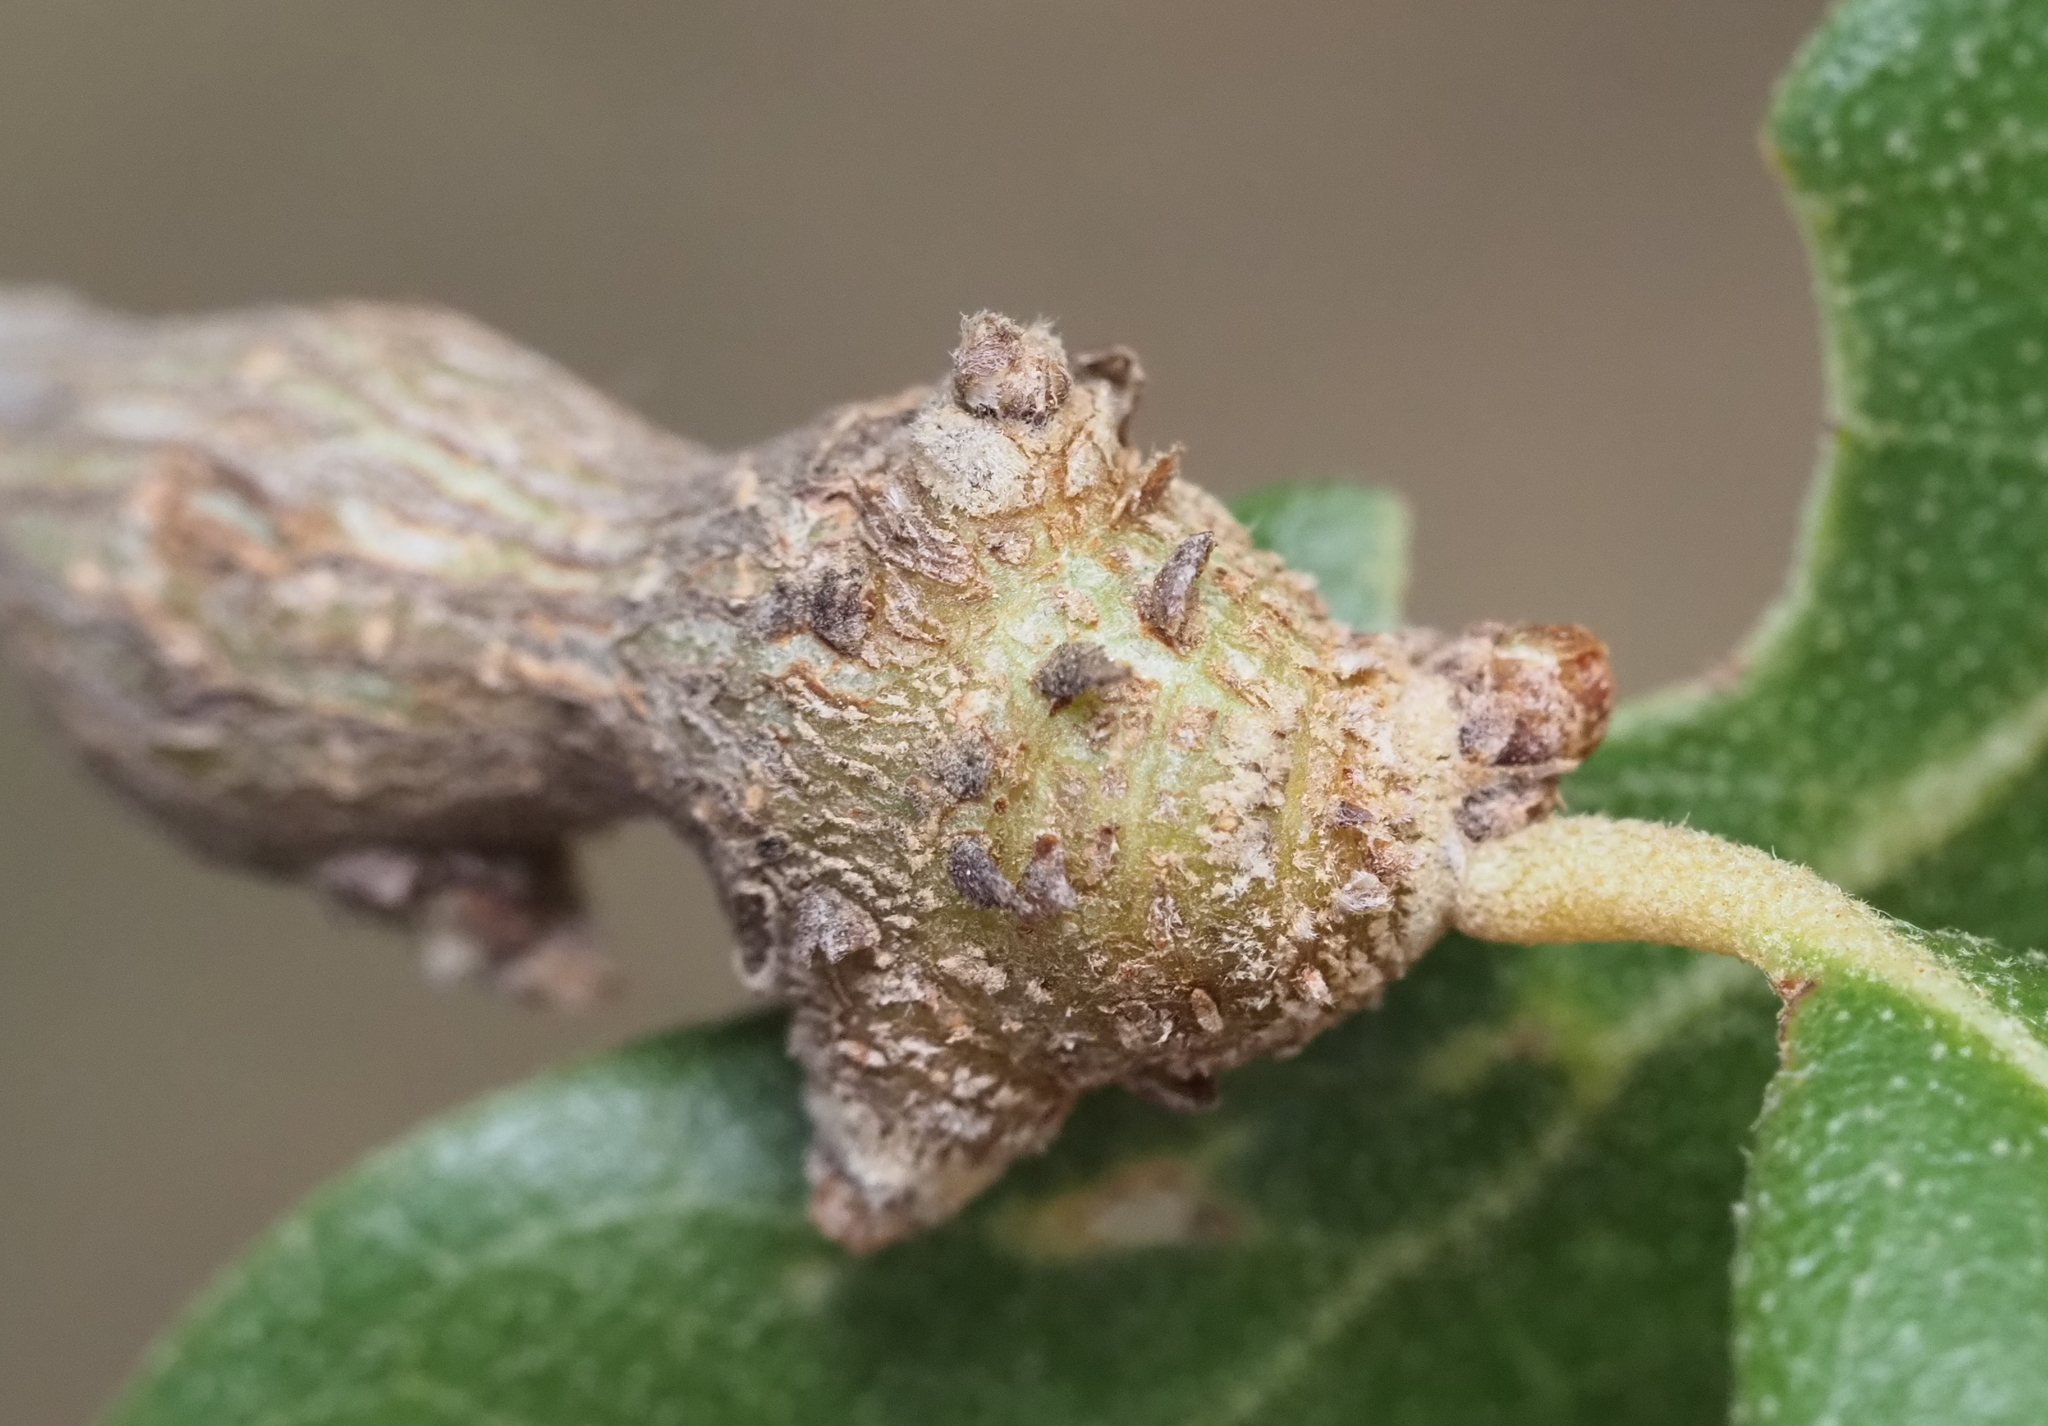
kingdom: Animalia
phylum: Arthropoda
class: Insecta
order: Hymenoptera
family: Cynipidae
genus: Callirhytis
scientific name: Callirhytis
